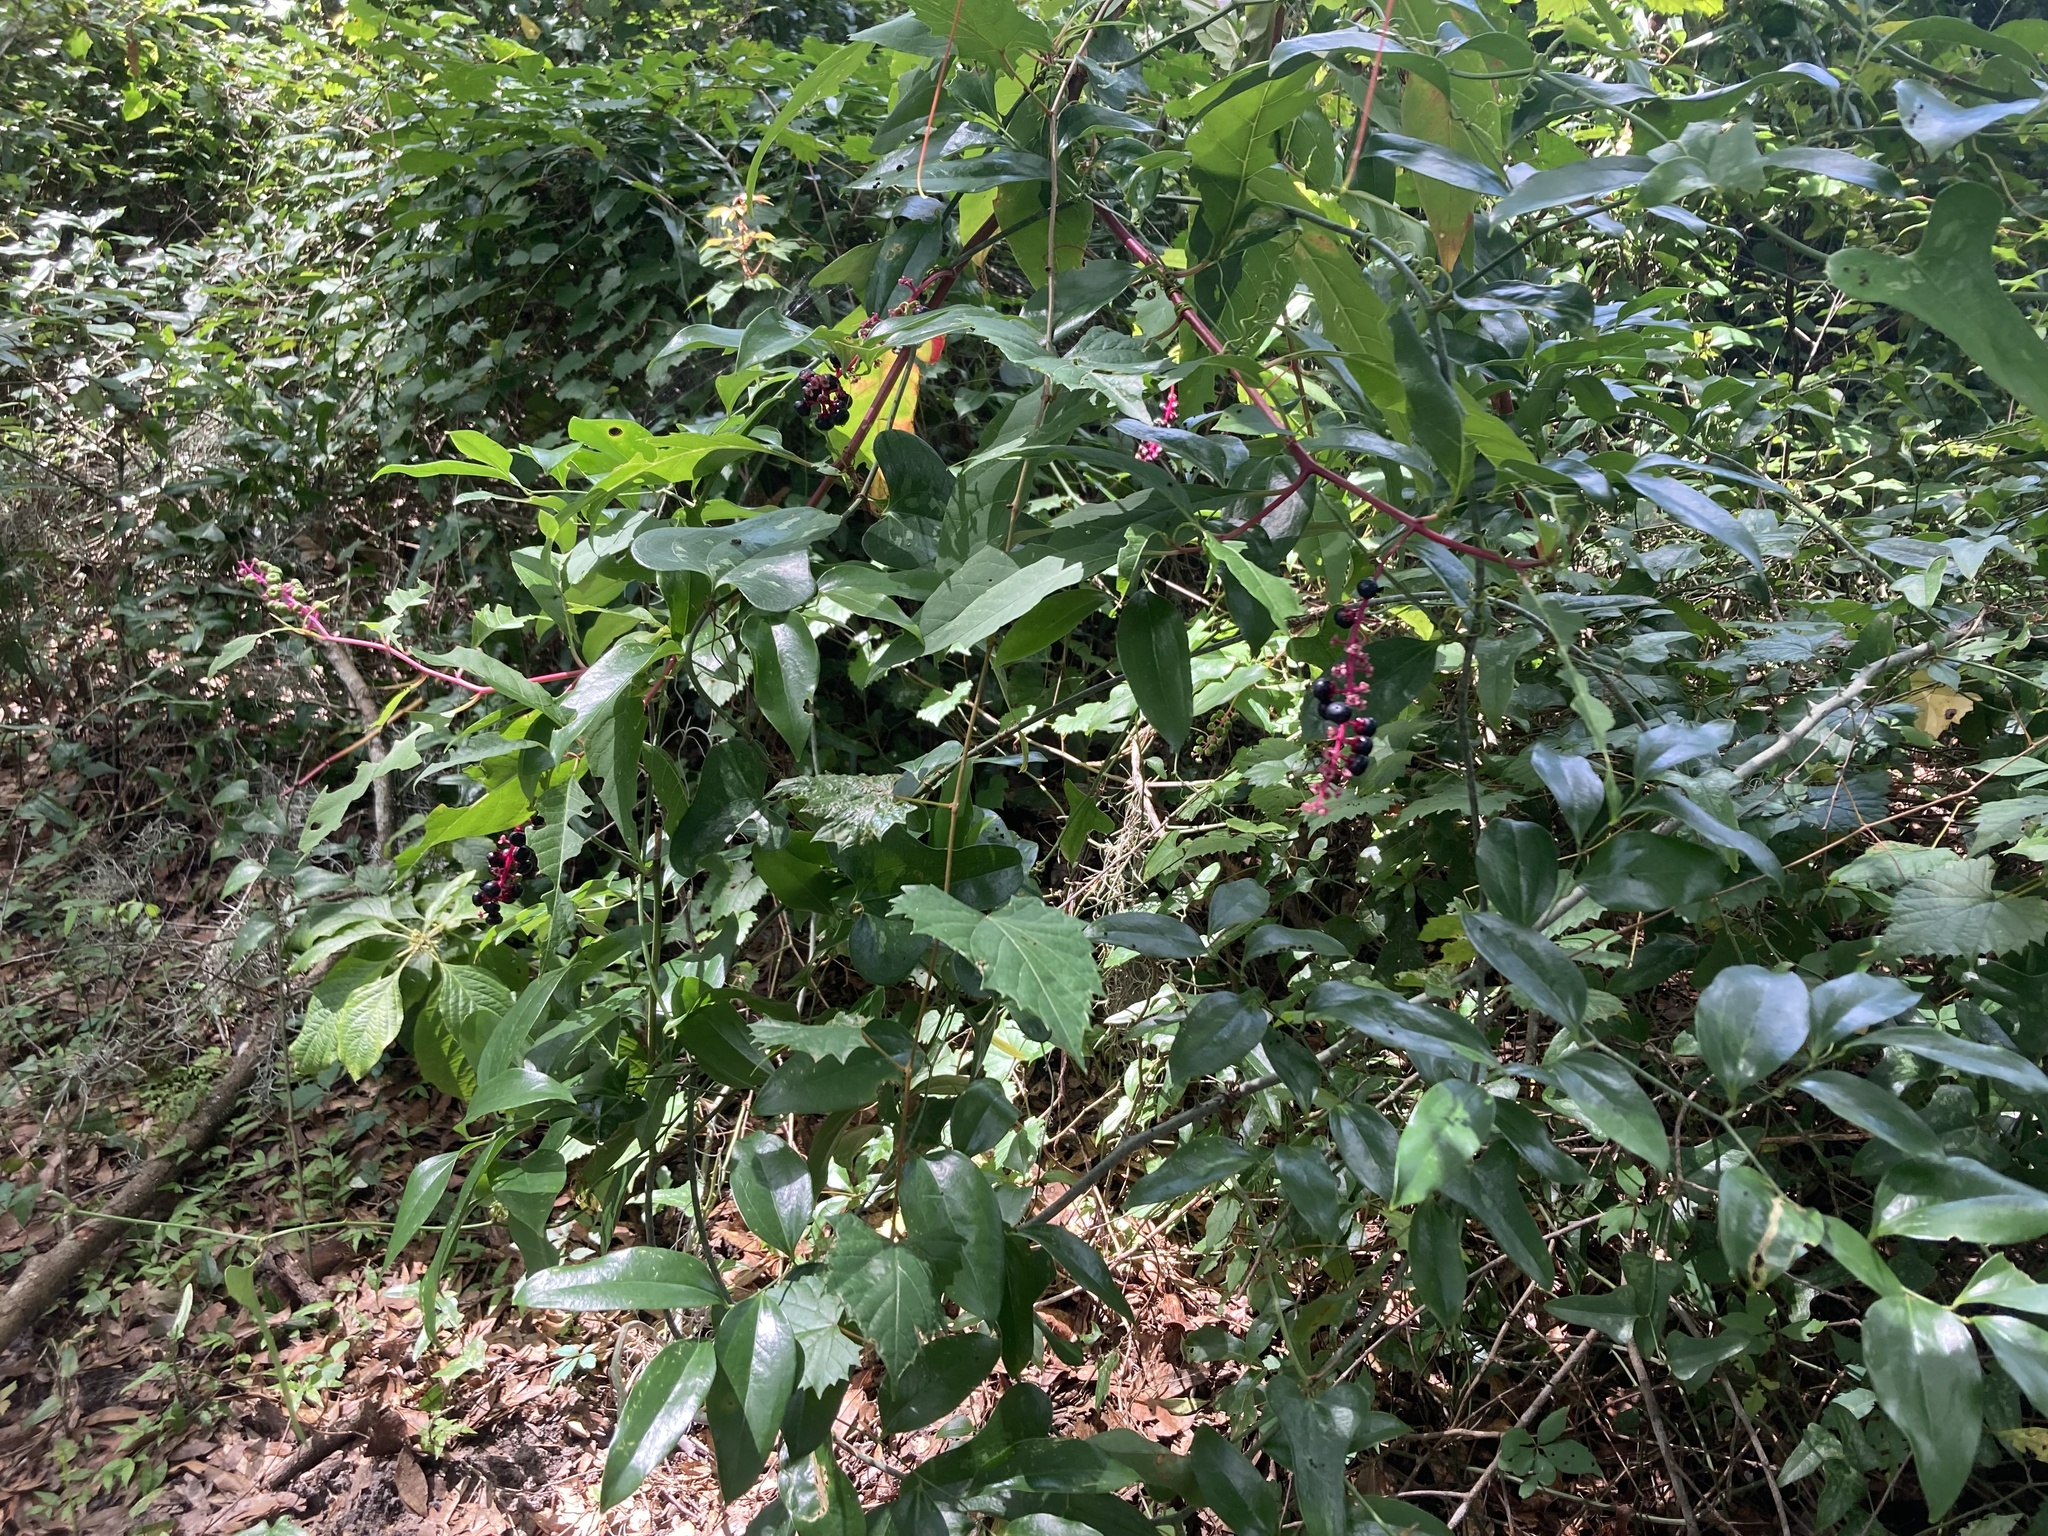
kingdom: Plantae
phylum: Tracheophyta
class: Magnoliopsida
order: Caryophyllales
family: Phytolaccaceae
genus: Phytolacca
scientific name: Phytolacca americana
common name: American pokeweed
